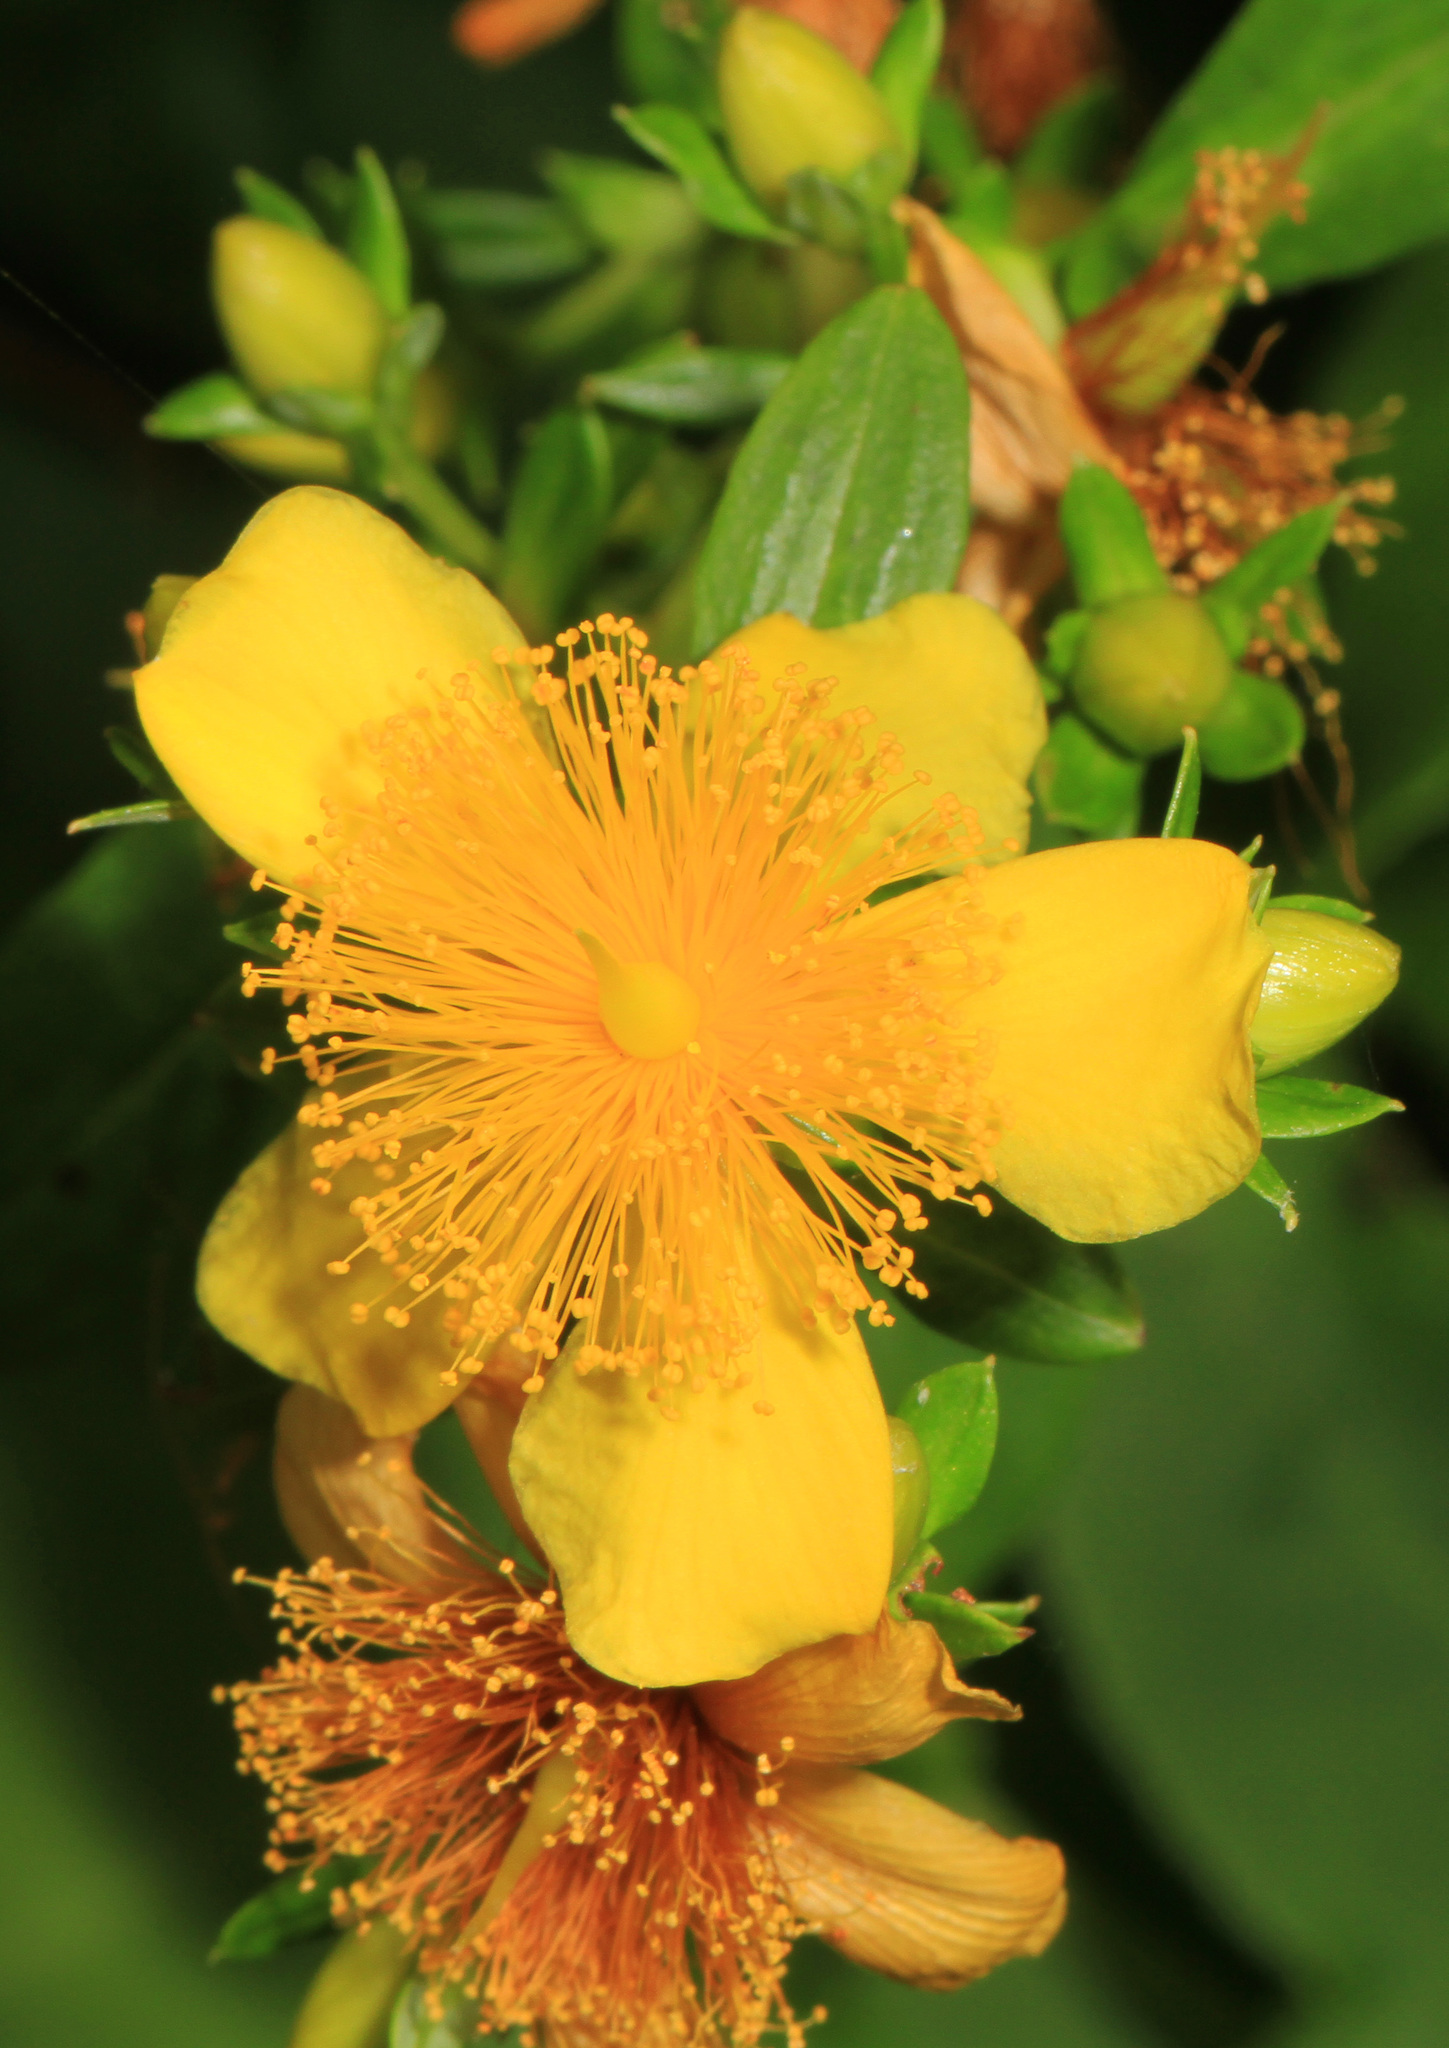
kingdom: Plantae
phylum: Tracheophyta
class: Magnoliopsida
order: Malpighiales
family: Hypericaceae
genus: Hypericum
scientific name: Hypericum prolificum
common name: Shrubby st. john's-wort
